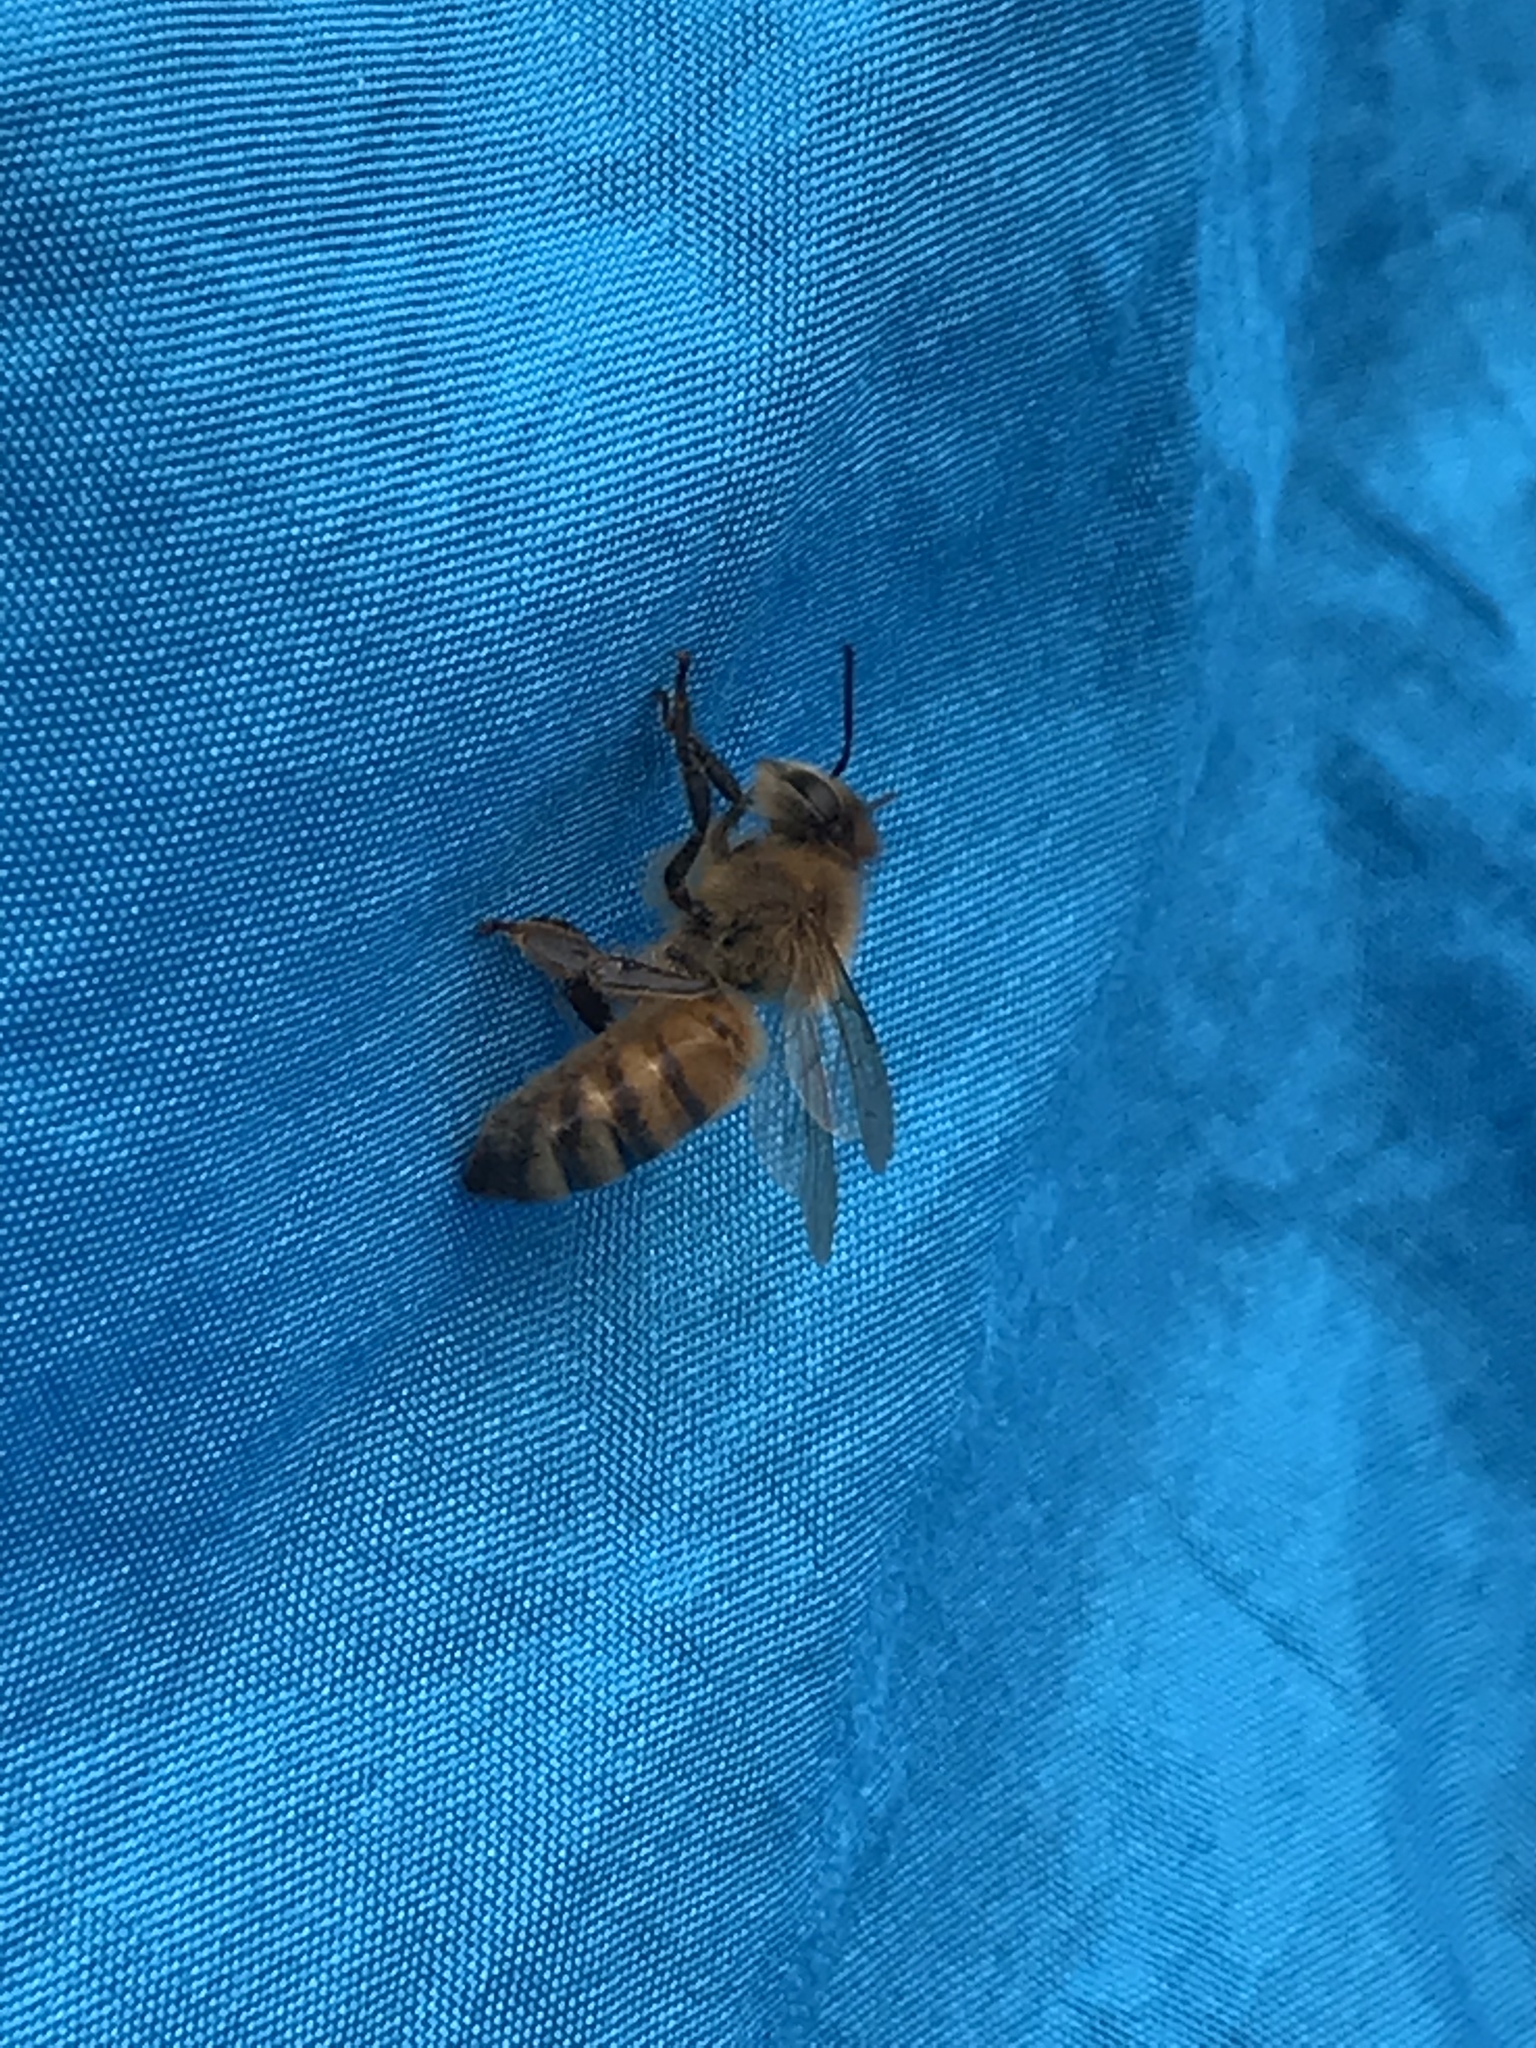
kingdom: Animalia
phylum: Arthropoda
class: Insecta
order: Hymenoptera
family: Apidae
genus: Apis
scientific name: Apis mellifera
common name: Honey bee
